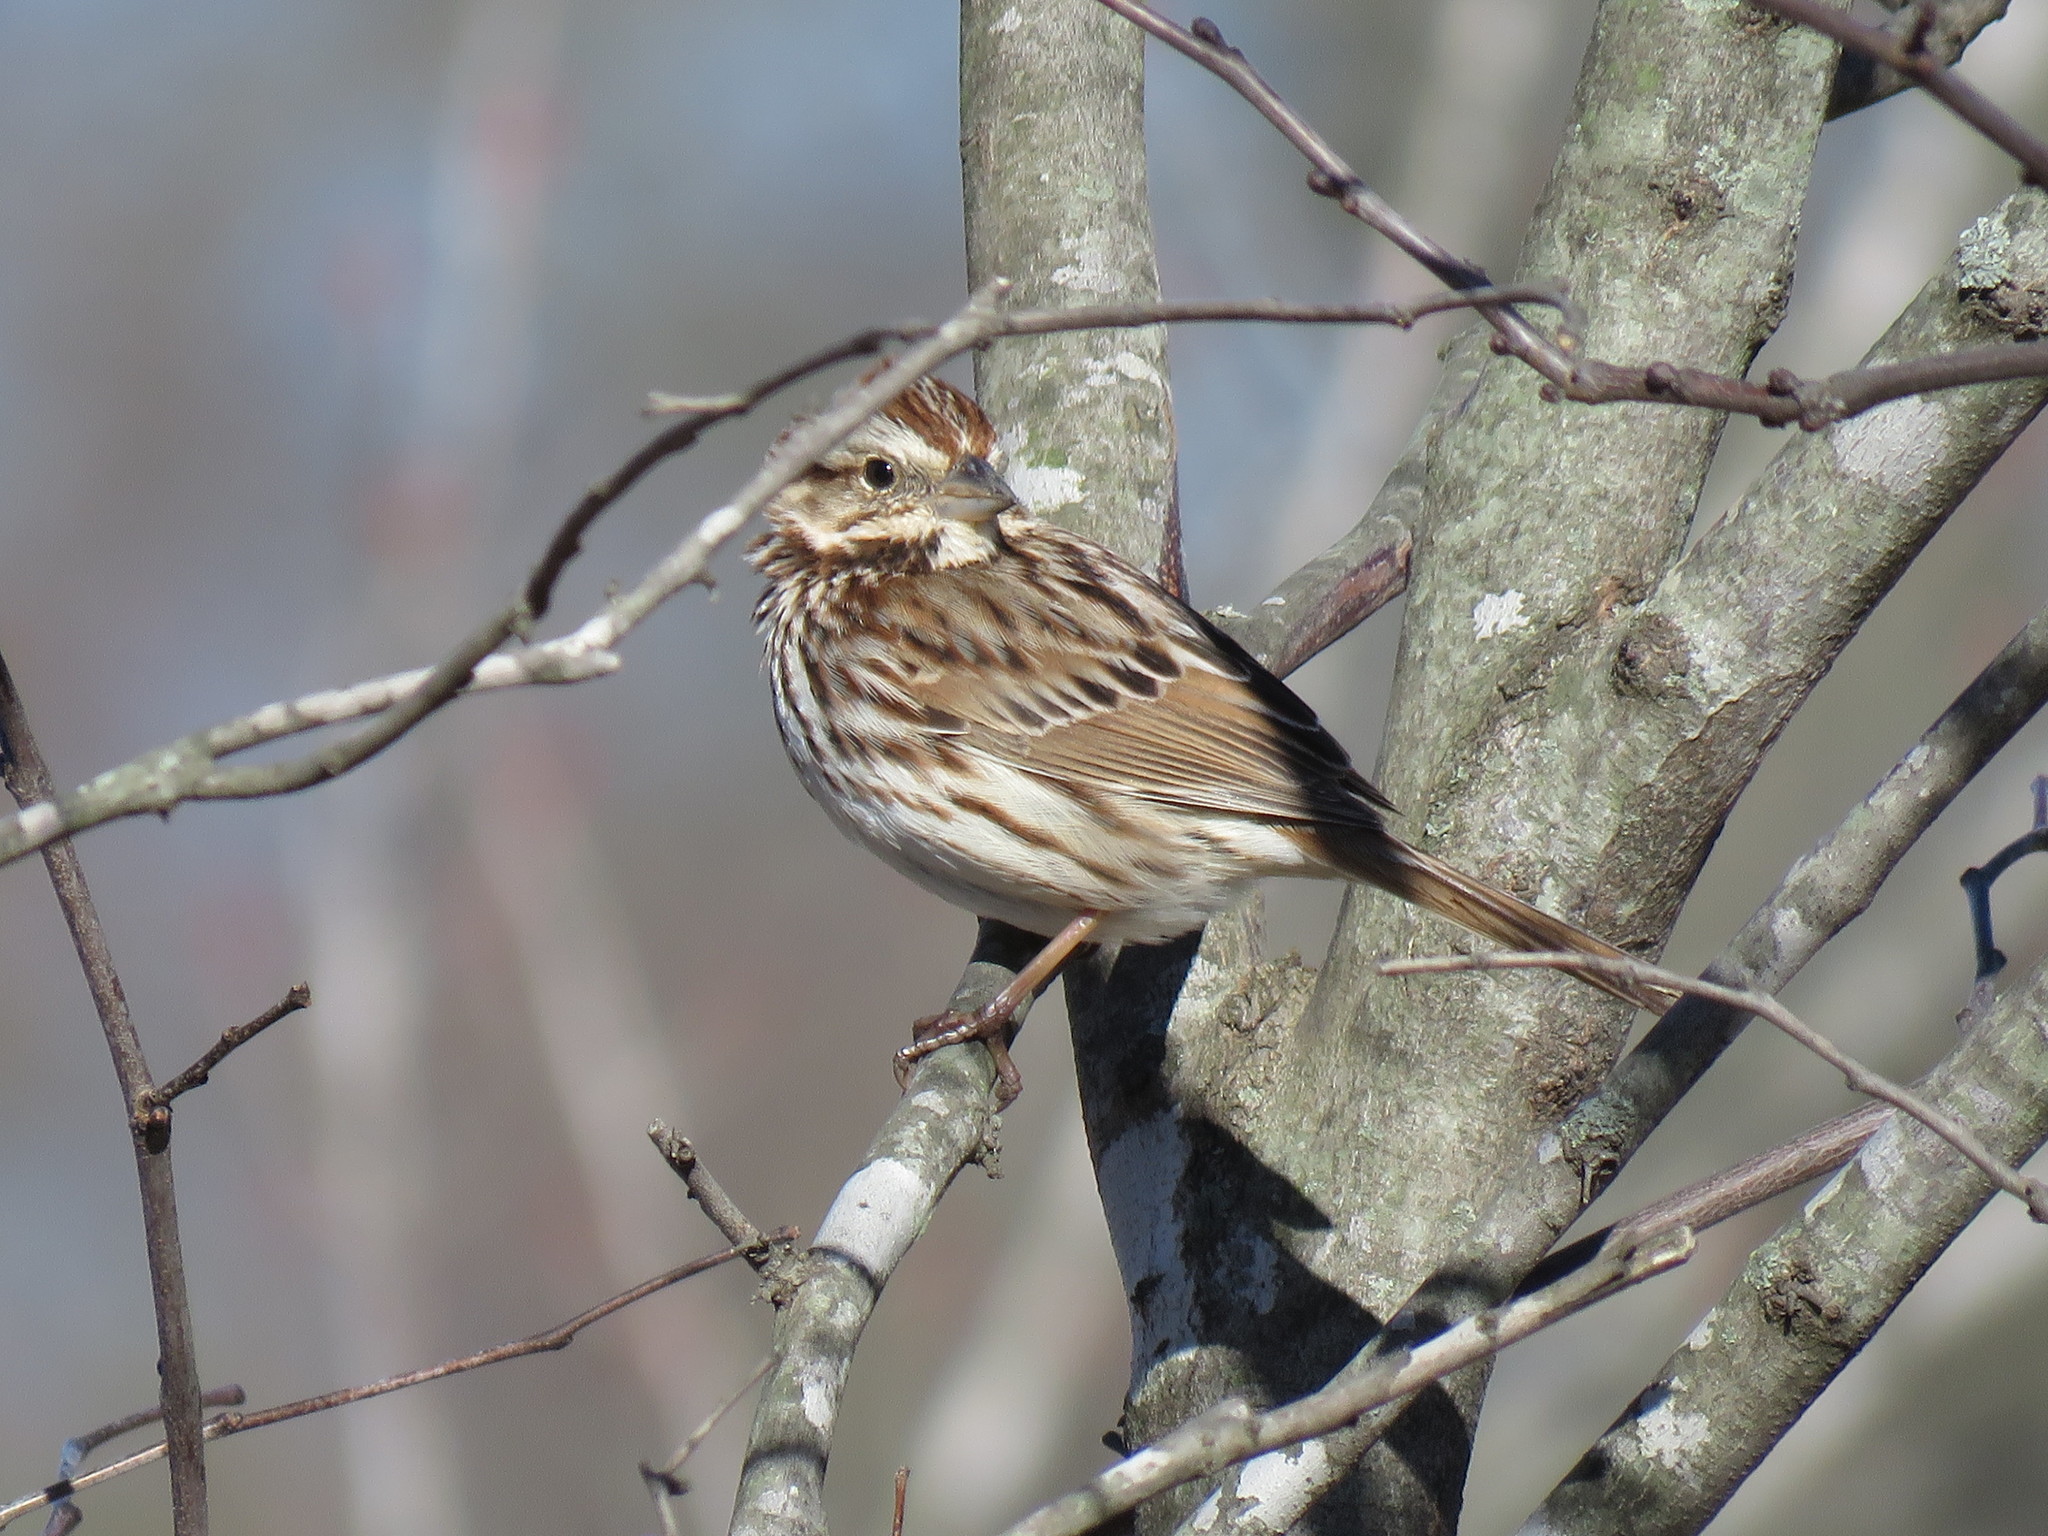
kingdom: Animalia
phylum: Chordata
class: Aves
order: Passeriformes
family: Passerellidae
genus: Melospiza
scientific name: Melospiza melodia
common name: Song sparrow
